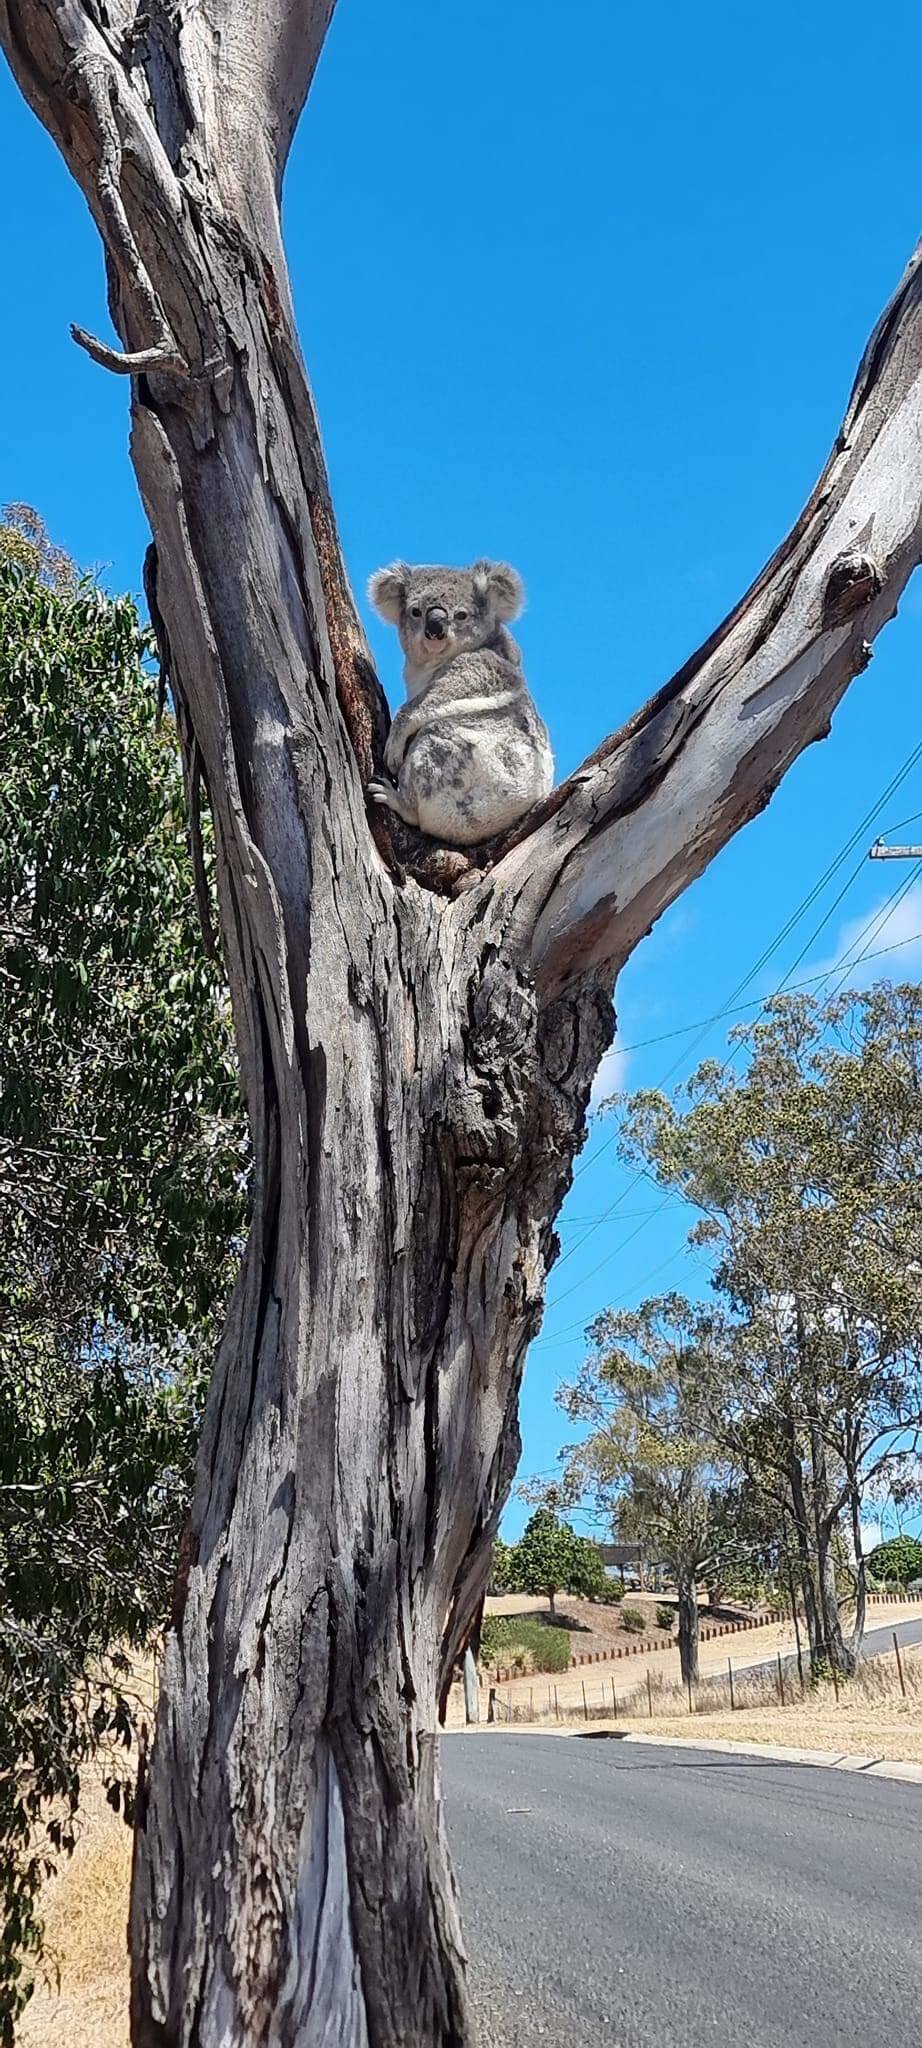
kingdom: Animalia
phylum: Chordata
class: Mammalia
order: Diprotodontia
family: Phascolarctidae
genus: Phascolarctos
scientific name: Phascolarctos cinereus
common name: Koala
